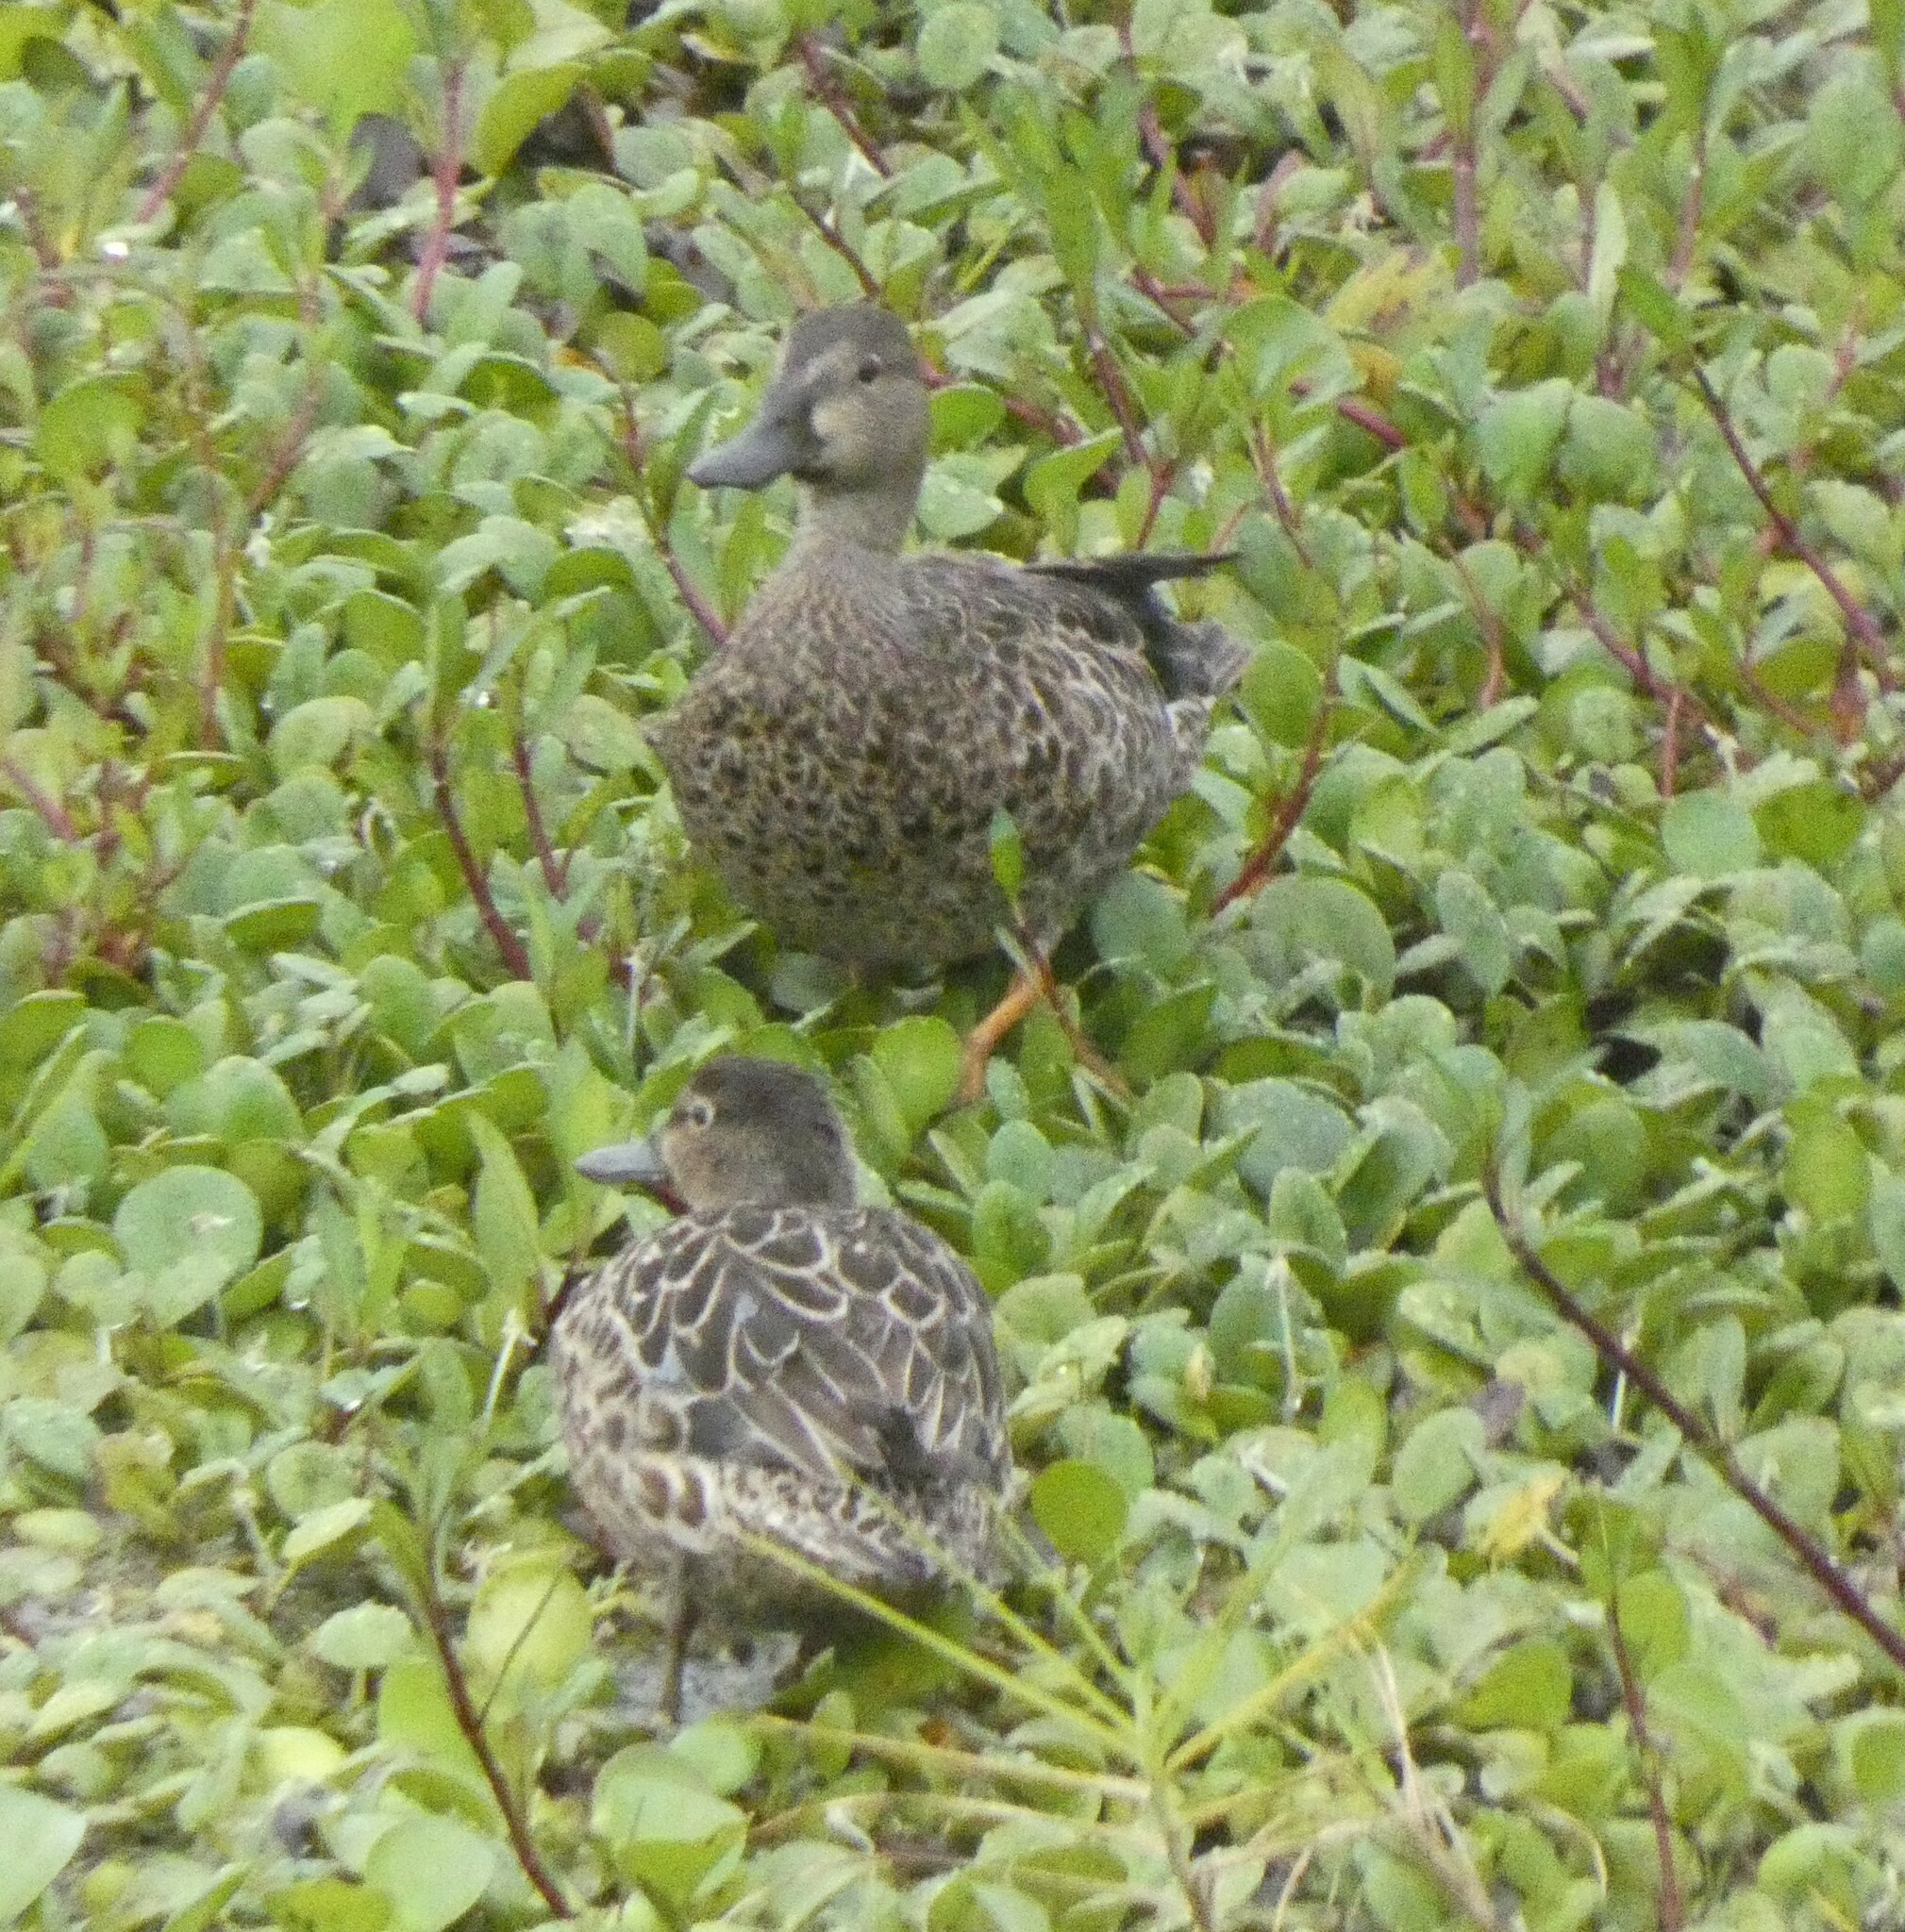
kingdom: Animalia
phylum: Chordata
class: Aves
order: Anseriformes
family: Anatidae
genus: Spatula
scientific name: Spatula discors
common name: Blue-winged teal
